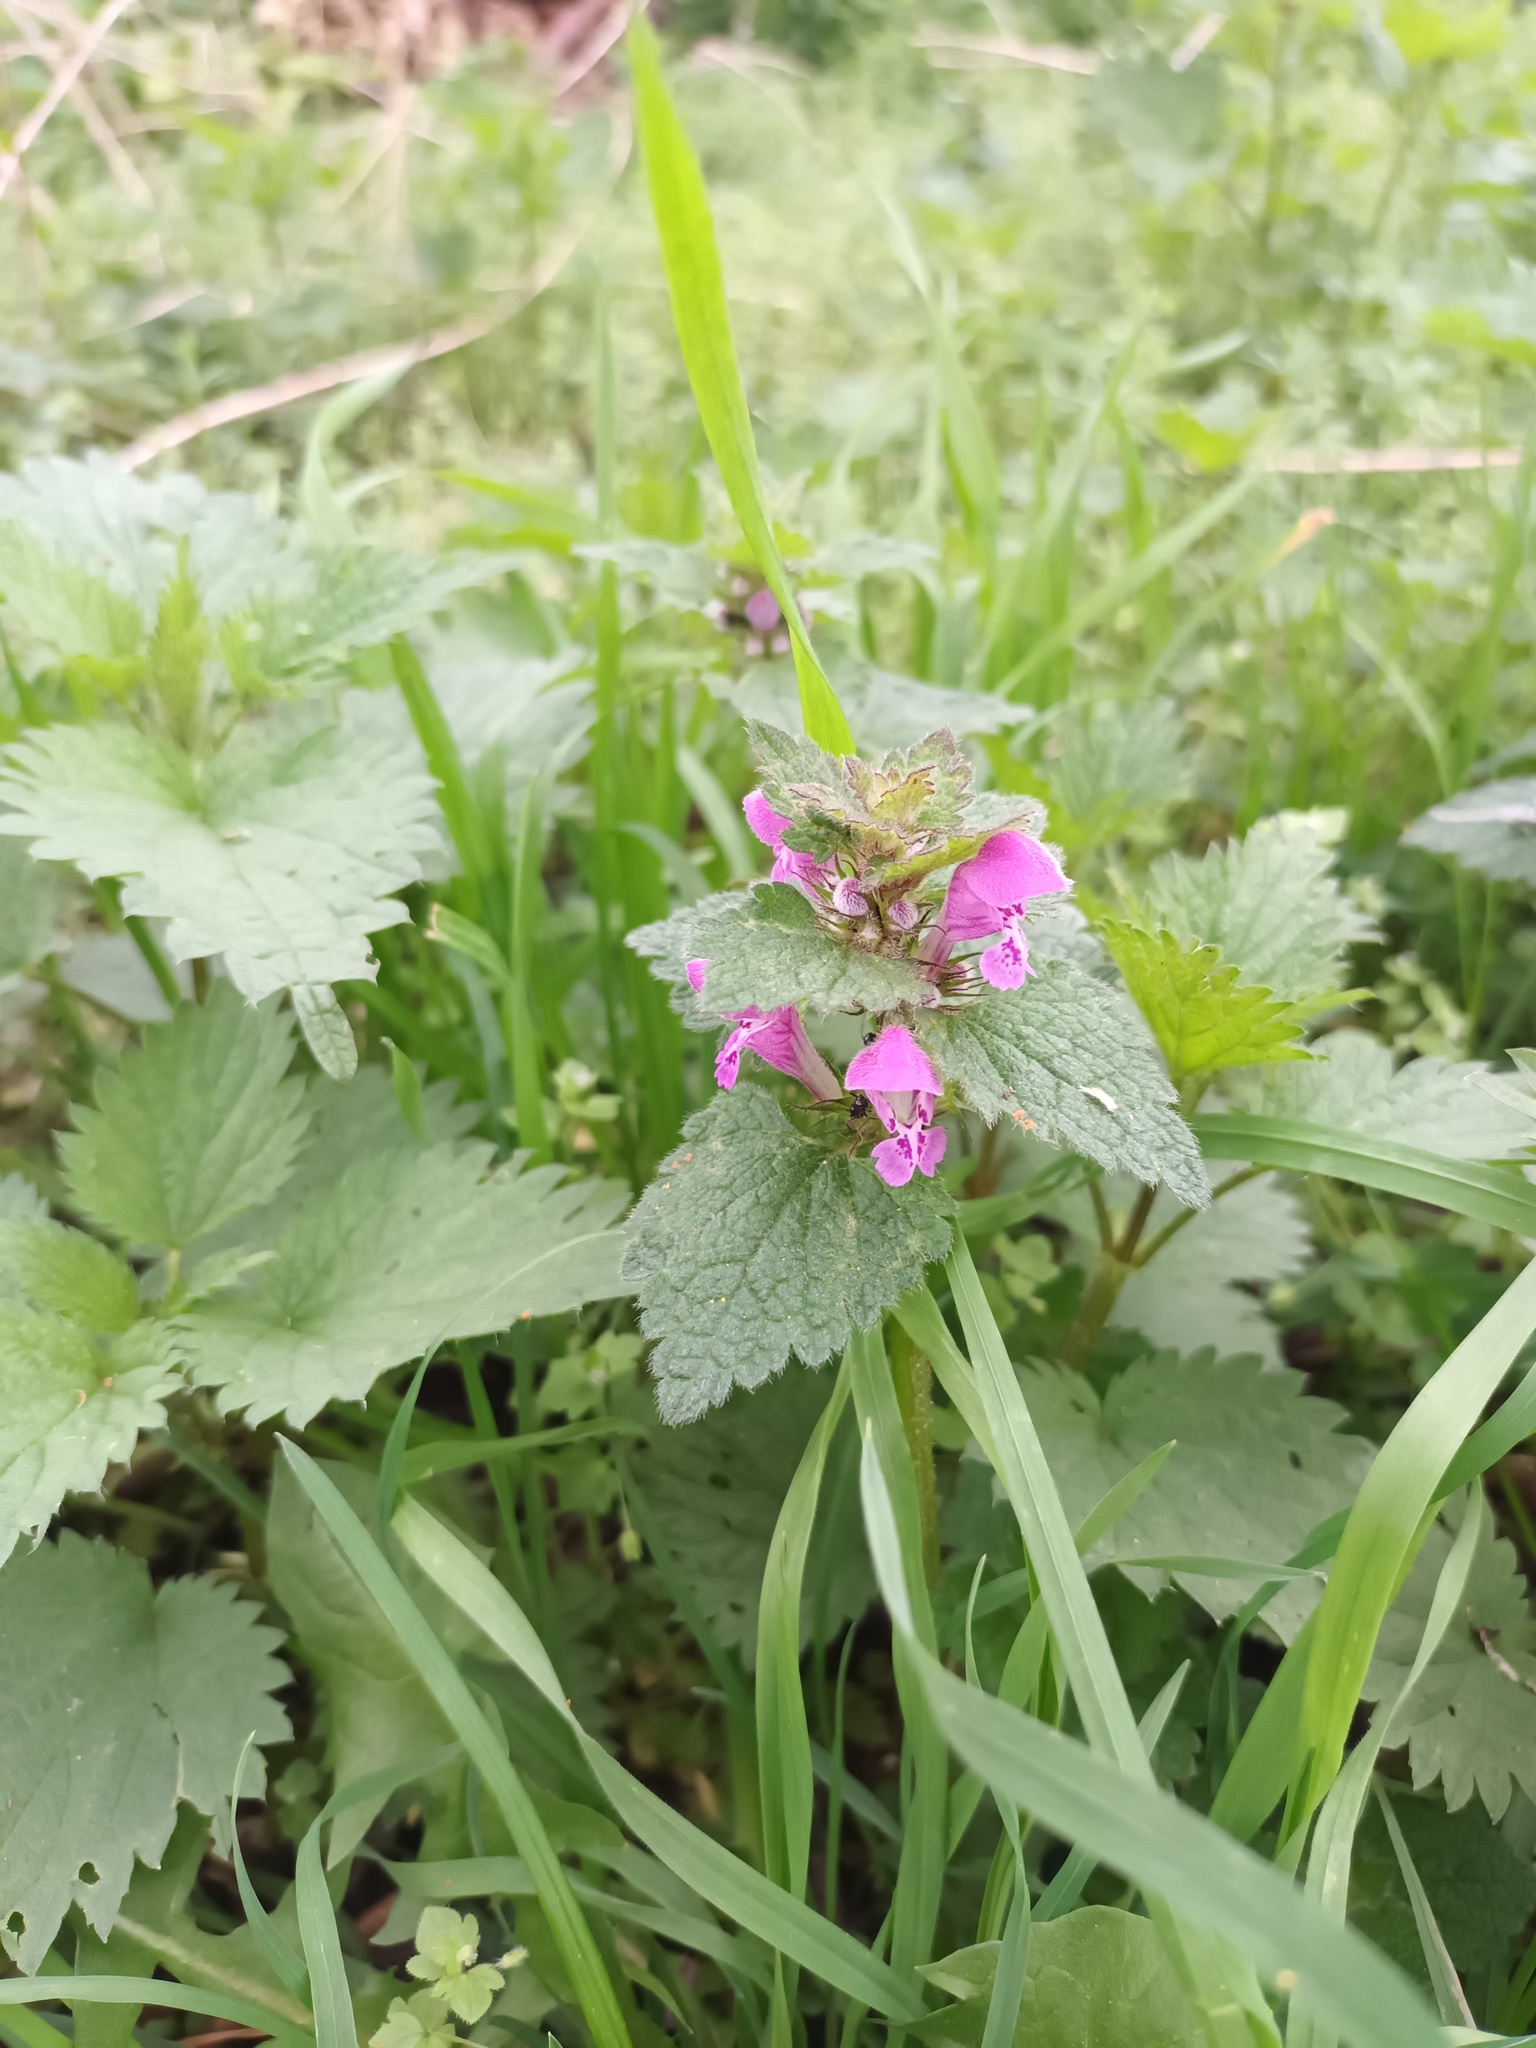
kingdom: Plantae
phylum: Tracheophyta
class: Magnoliopsida
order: Lamiales
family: Lamiaceae
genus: Lamium
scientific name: Lamium maculatum
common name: Spotted dead-nettle
